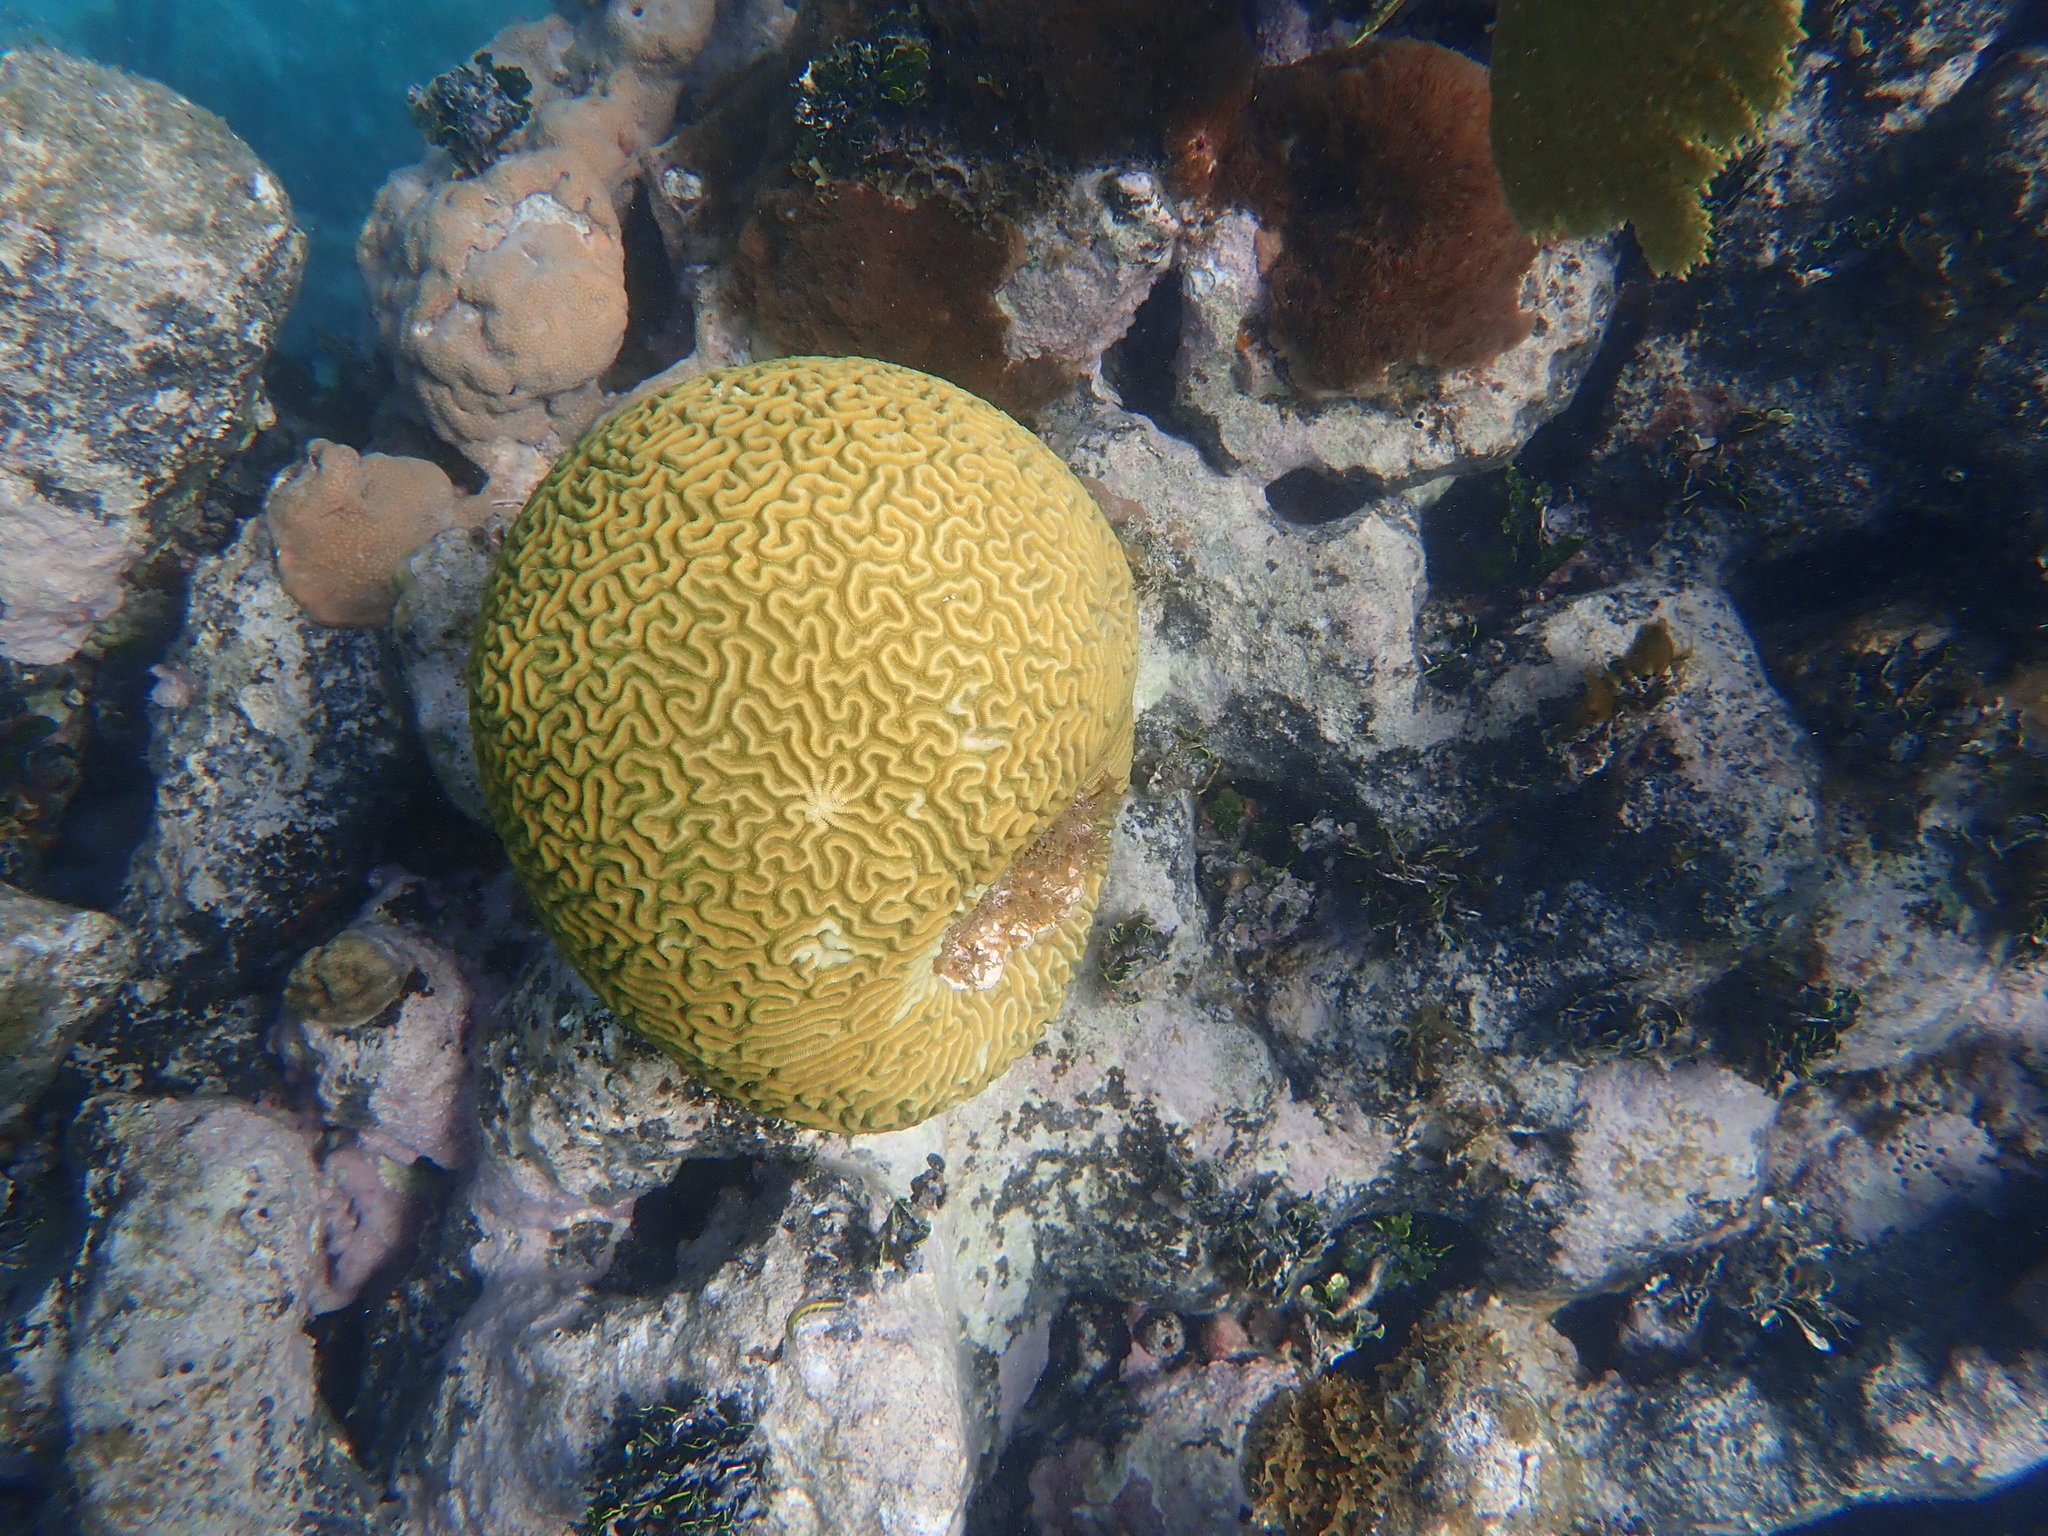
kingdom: Animalia
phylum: Cnidaria
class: Anthozoa
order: Scleractinia
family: Faviidae
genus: Pseudodiploria
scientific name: Pseudodiploria strigosa
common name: Symmetrical brain coral
